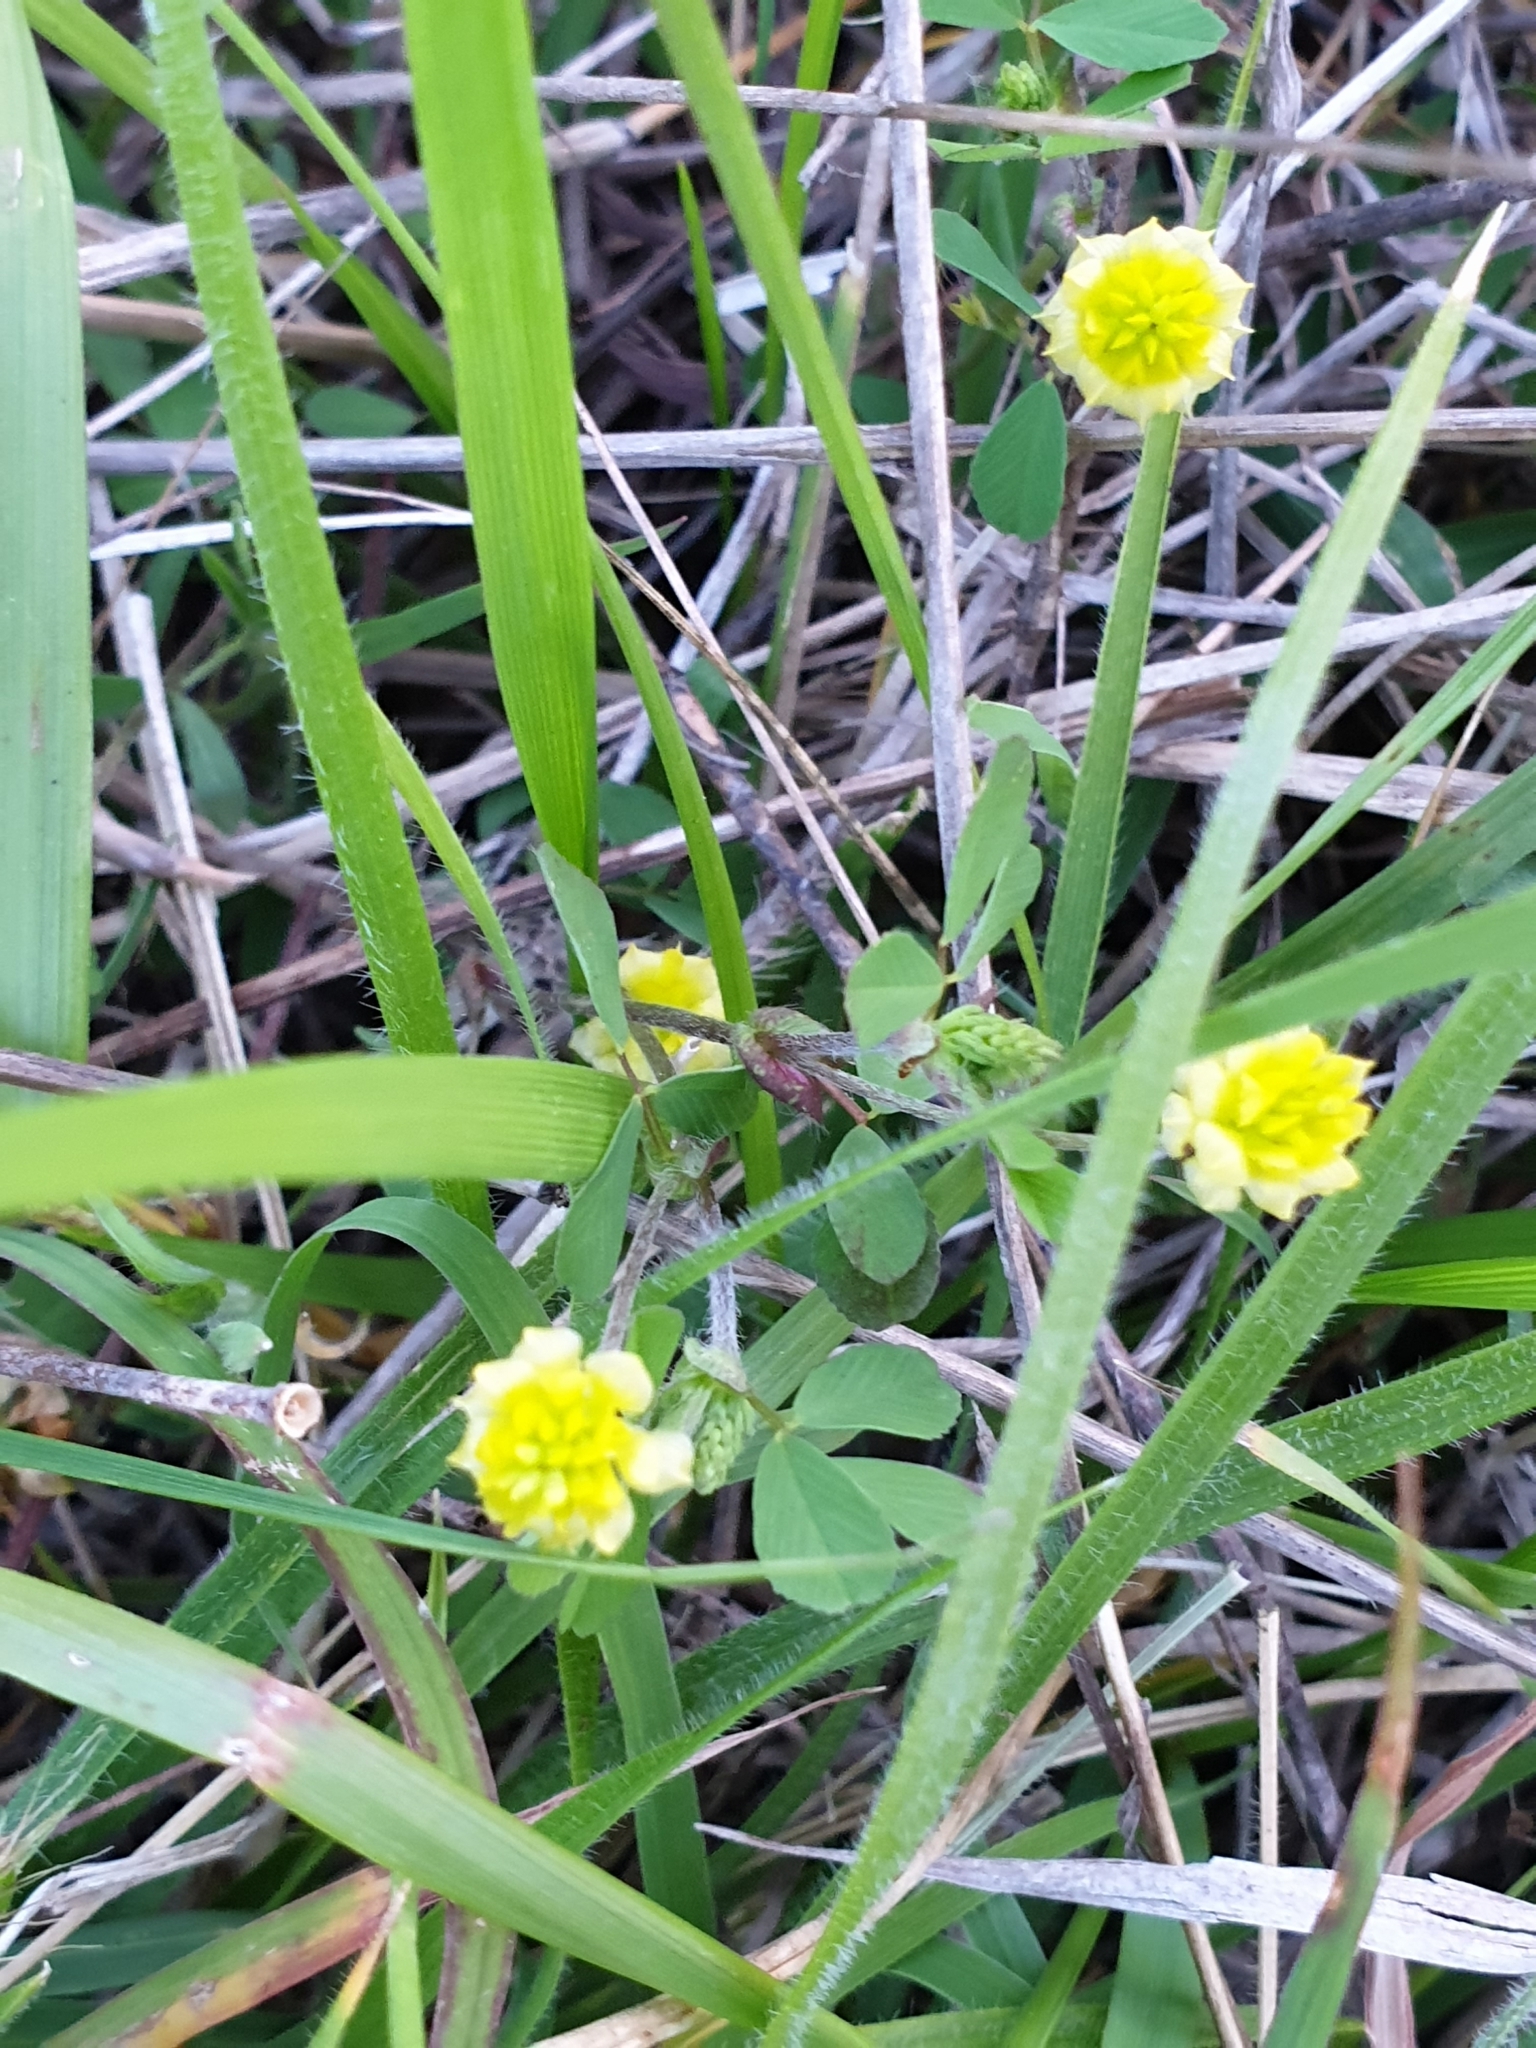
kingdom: Plantae
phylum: Tracheophyta
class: Magnoliopsida
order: Fabales
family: Fabaceae
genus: Trifolium
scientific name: Trifolium campestre
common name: Field clover
